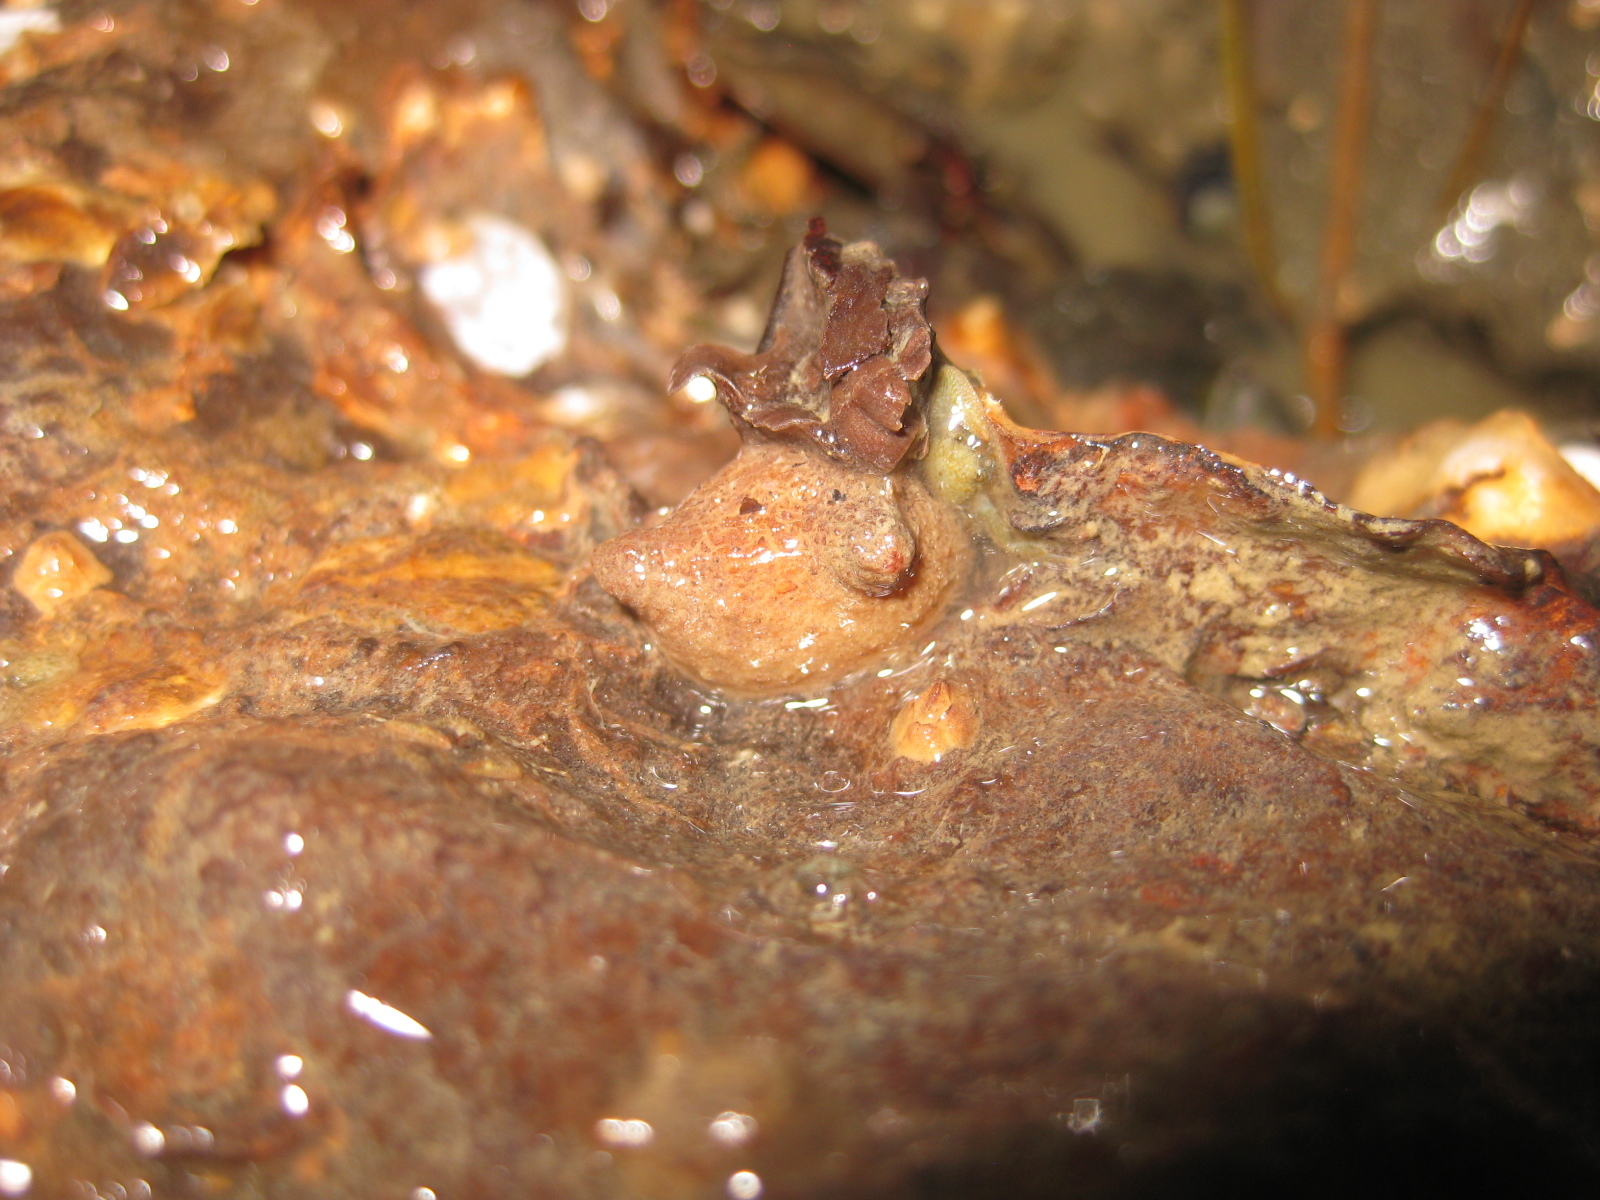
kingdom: Animalia
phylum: Chordata
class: Ascidiacea
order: Stolidobranchia
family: Styelidae
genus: Asterocarpa
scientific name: Asterocarpa humilis
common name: Compass sea squirt
